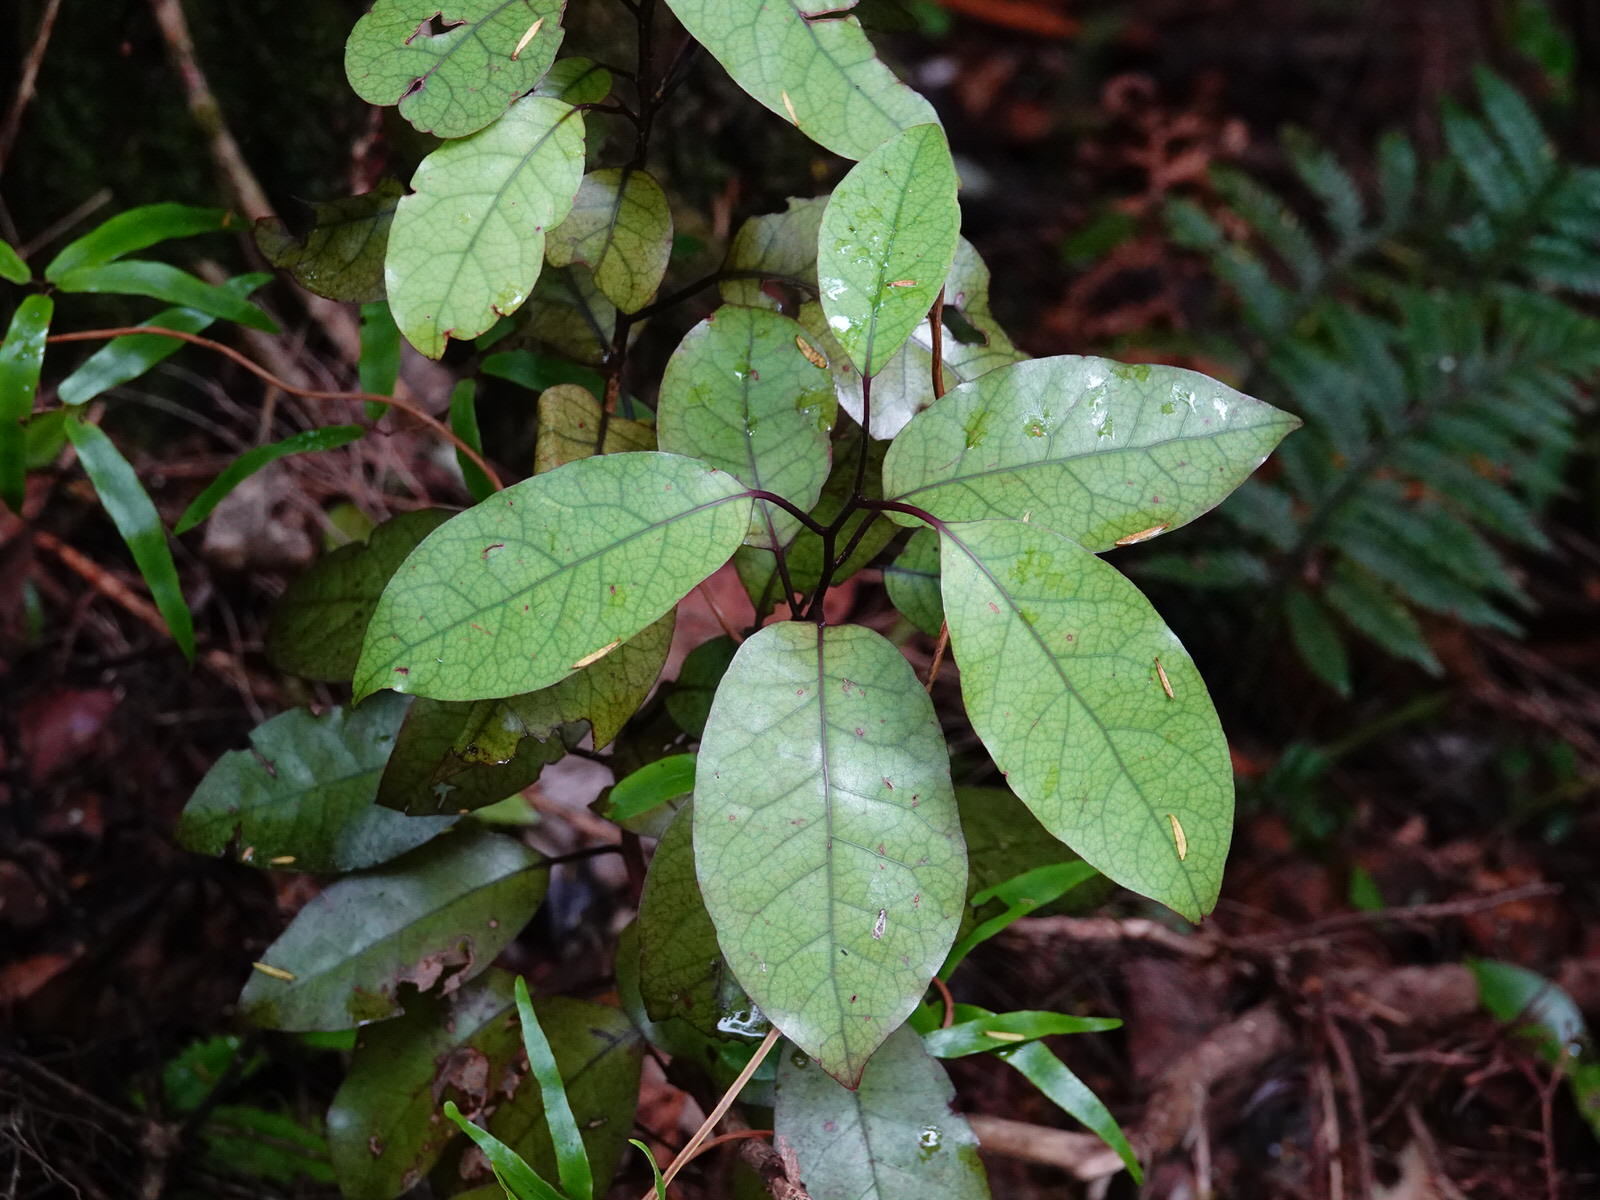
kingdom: Plantae
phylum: Tracheophyta
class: Magnoliopsida
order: Laurales
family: Lauraceae
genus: Litsea
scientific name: Litsea calicaris
